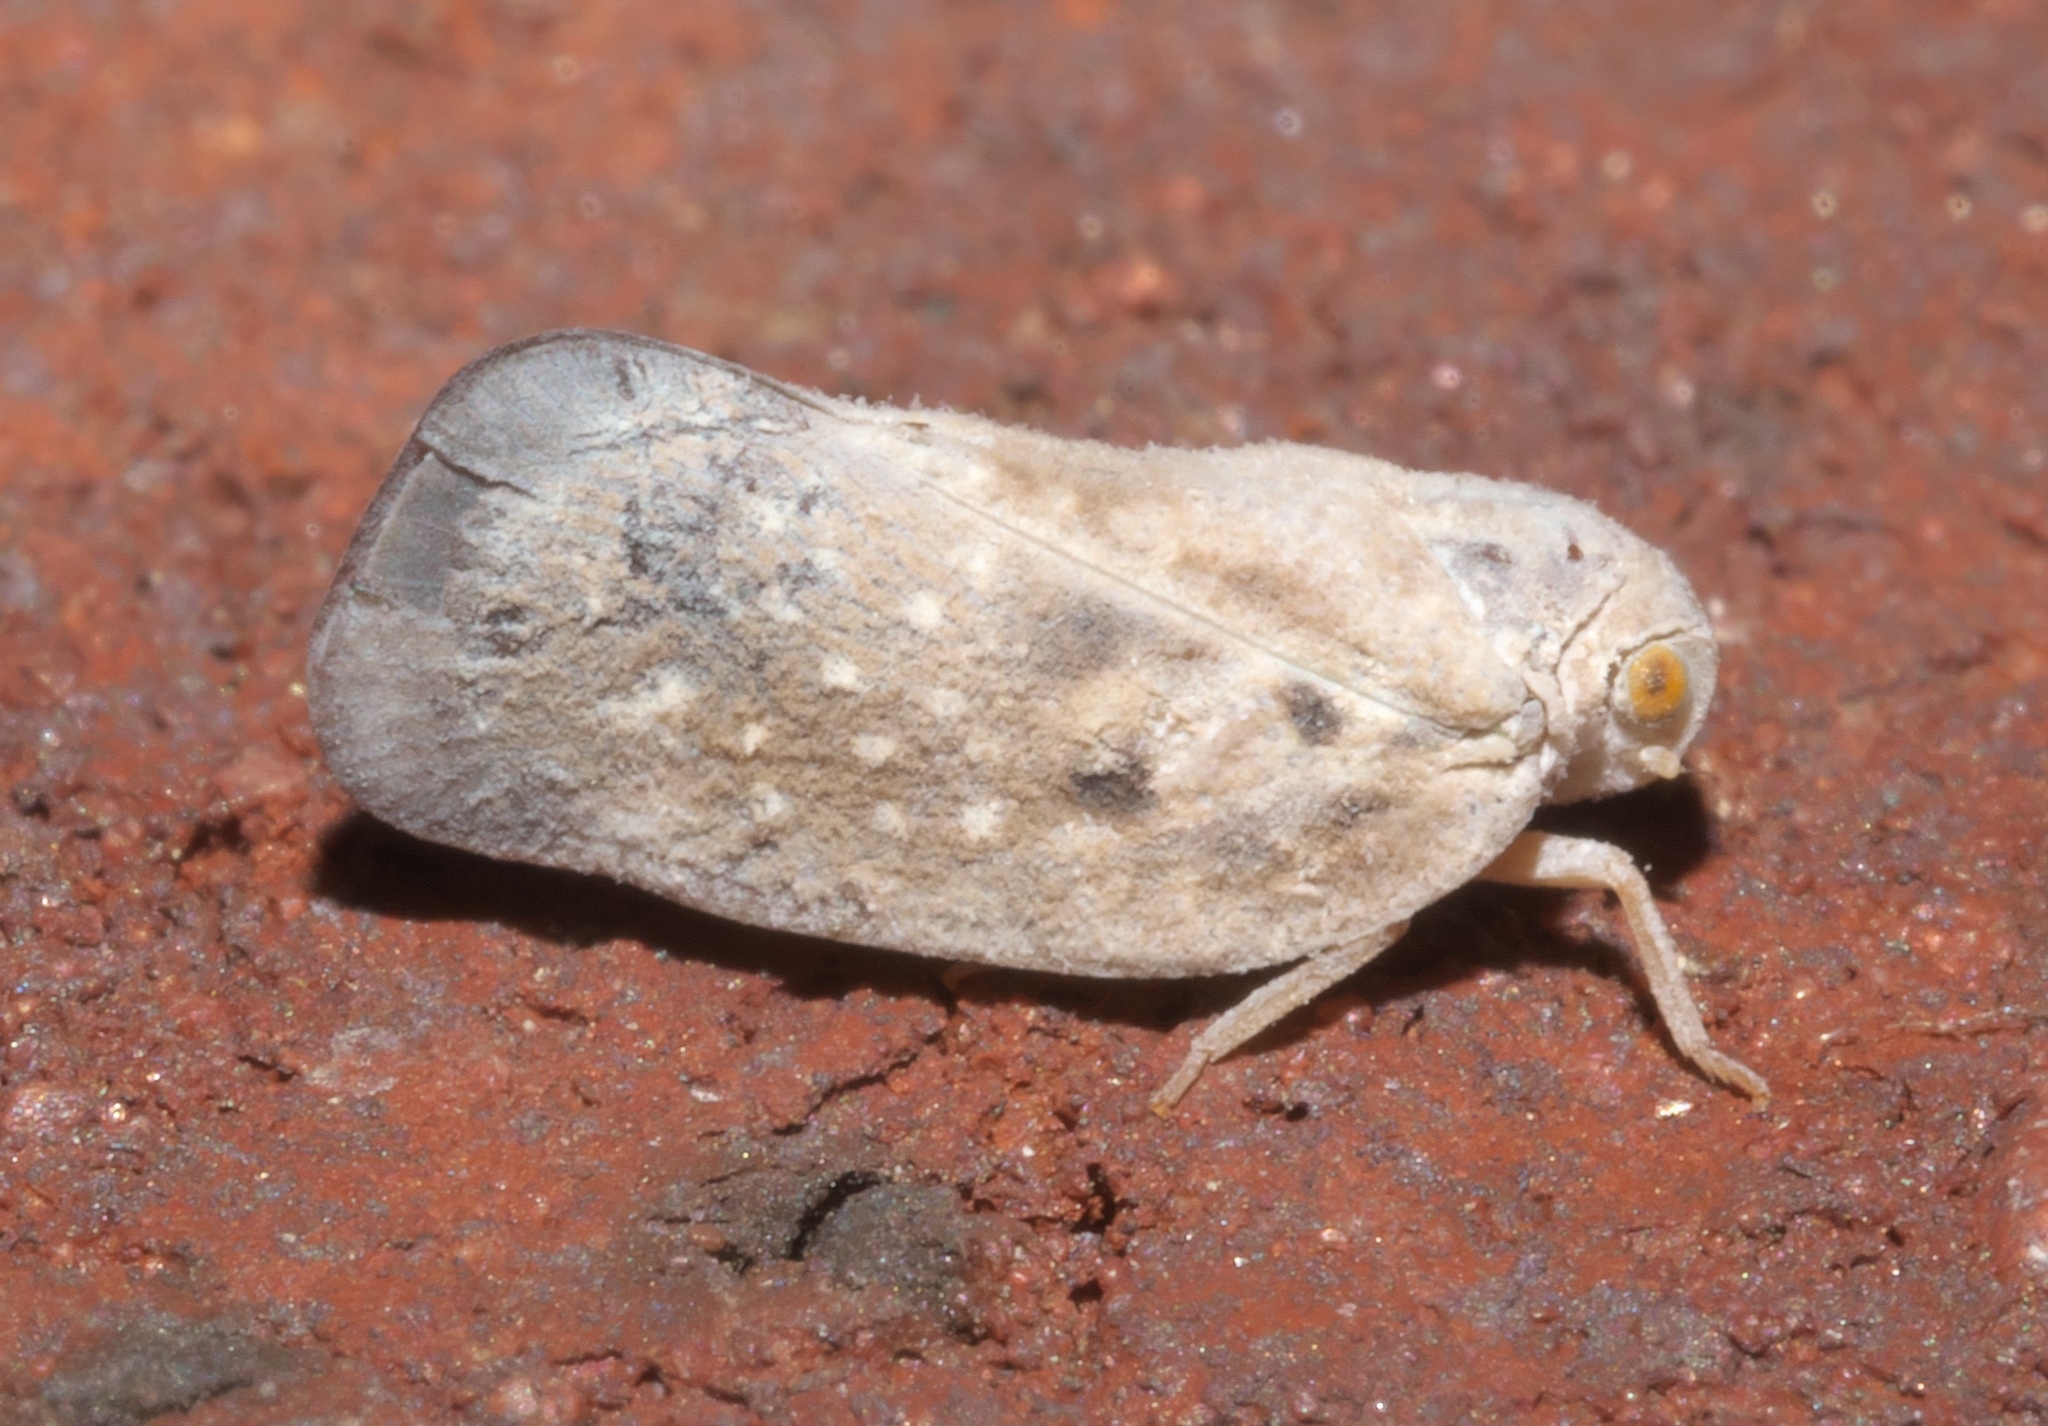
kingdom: Animalia
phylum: Arthropoda
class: Insecta
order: Hemiptera
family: Flatidae
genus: Metcalfa
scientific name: Metcalfa pruinosa
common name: Citrus flatid planthopper
